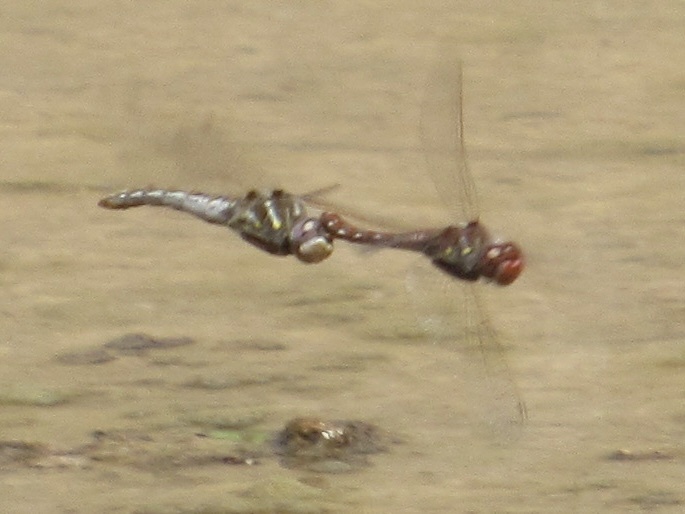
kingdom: Animalia
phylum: Arthropoda
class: Insecta
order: Odonata
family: Libellulidae
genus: Sympetrum
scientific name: Sympetrum corruptum
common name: Variegated meadowhawk
